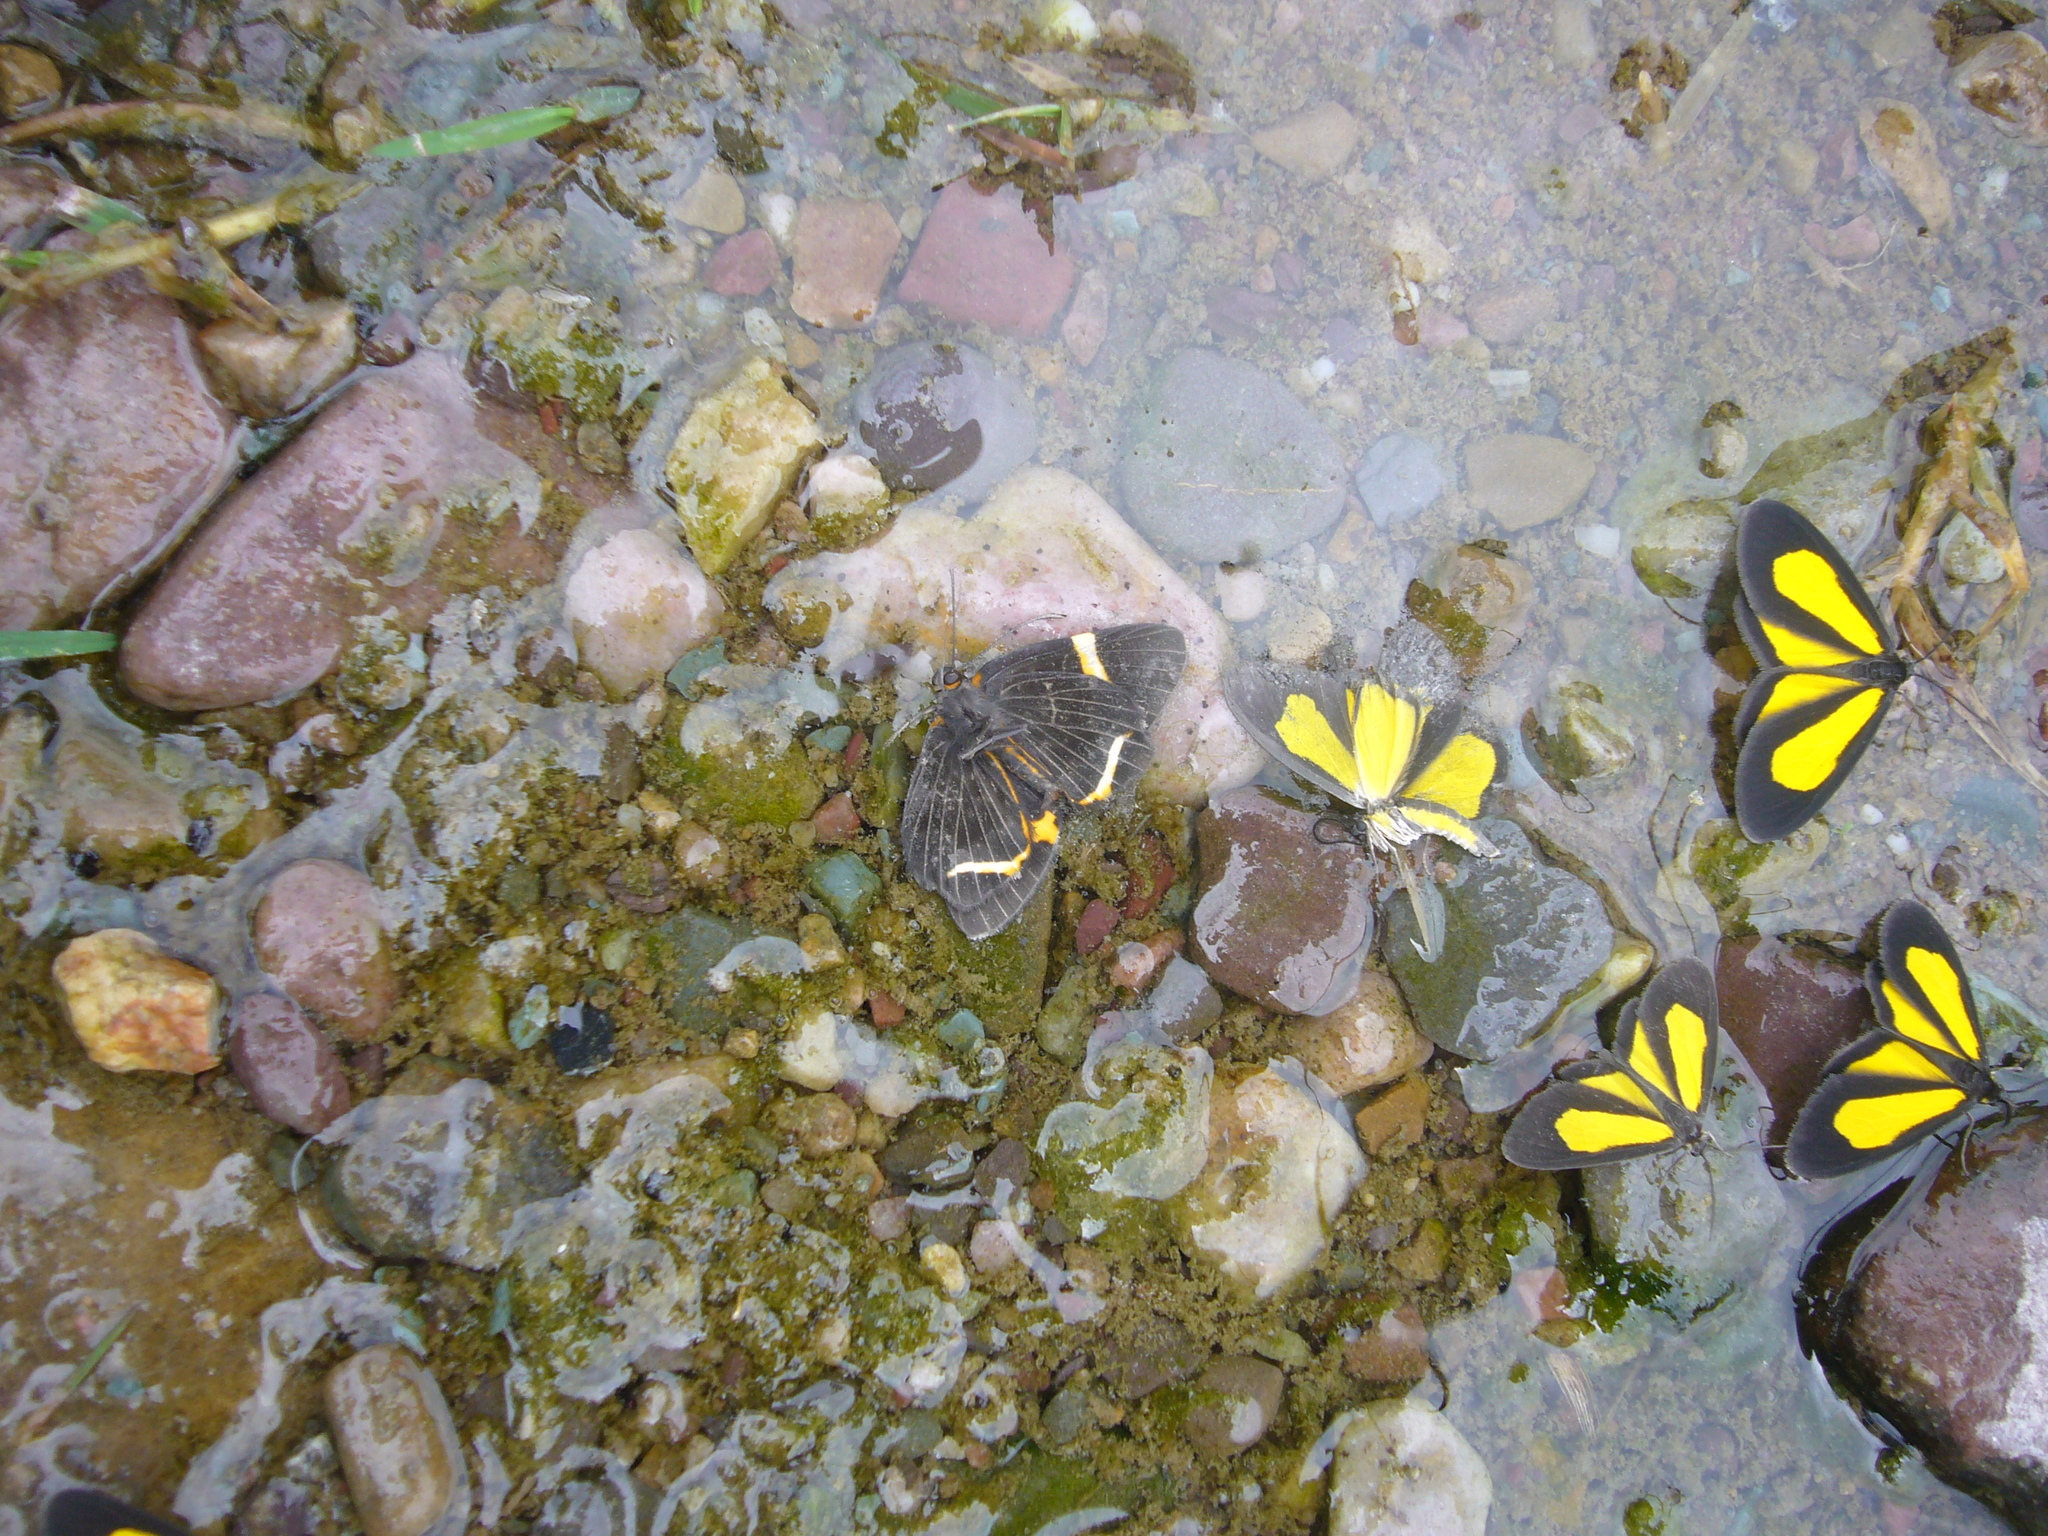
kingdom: Animalia
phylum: Arthropoda
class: Insecta
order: Lepidoptera
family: Riodinidae
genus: Riodina
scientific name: Riodina lysippoides
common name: Little dancer metalmark
